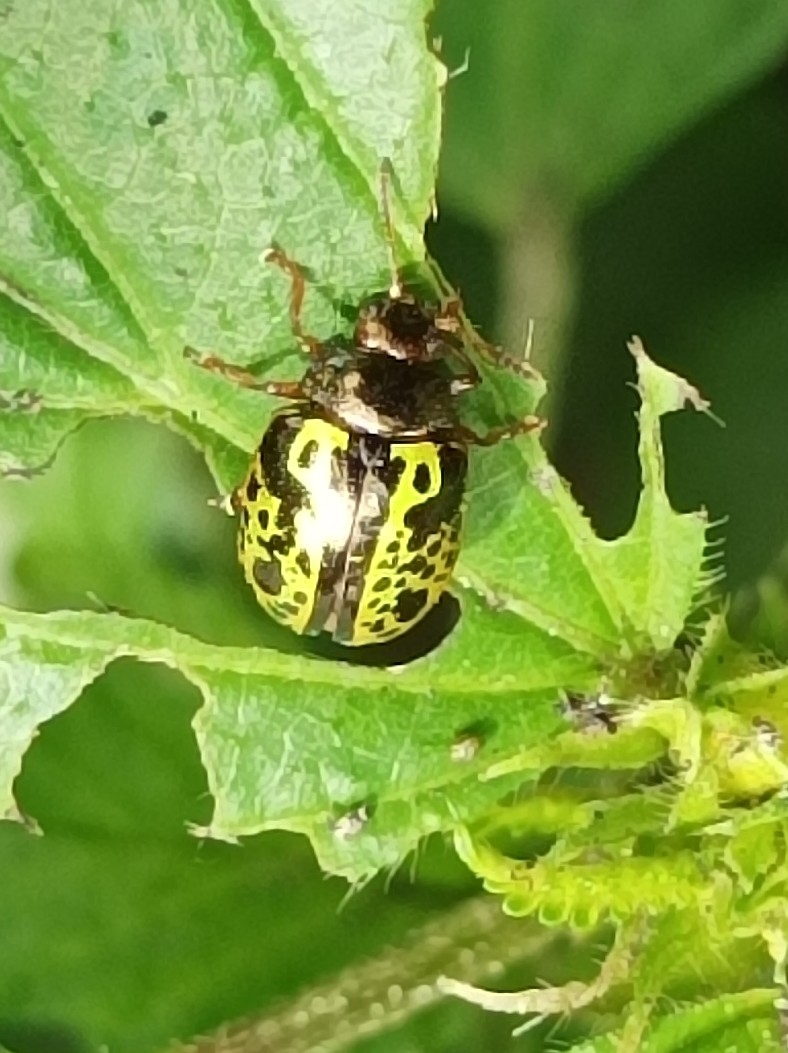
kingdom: Animalia
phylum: Arthropoda
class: Insecta
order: Coleoptera
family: Chrysomelidae
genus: Calligrapha
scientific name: Calligrapha pantherina
